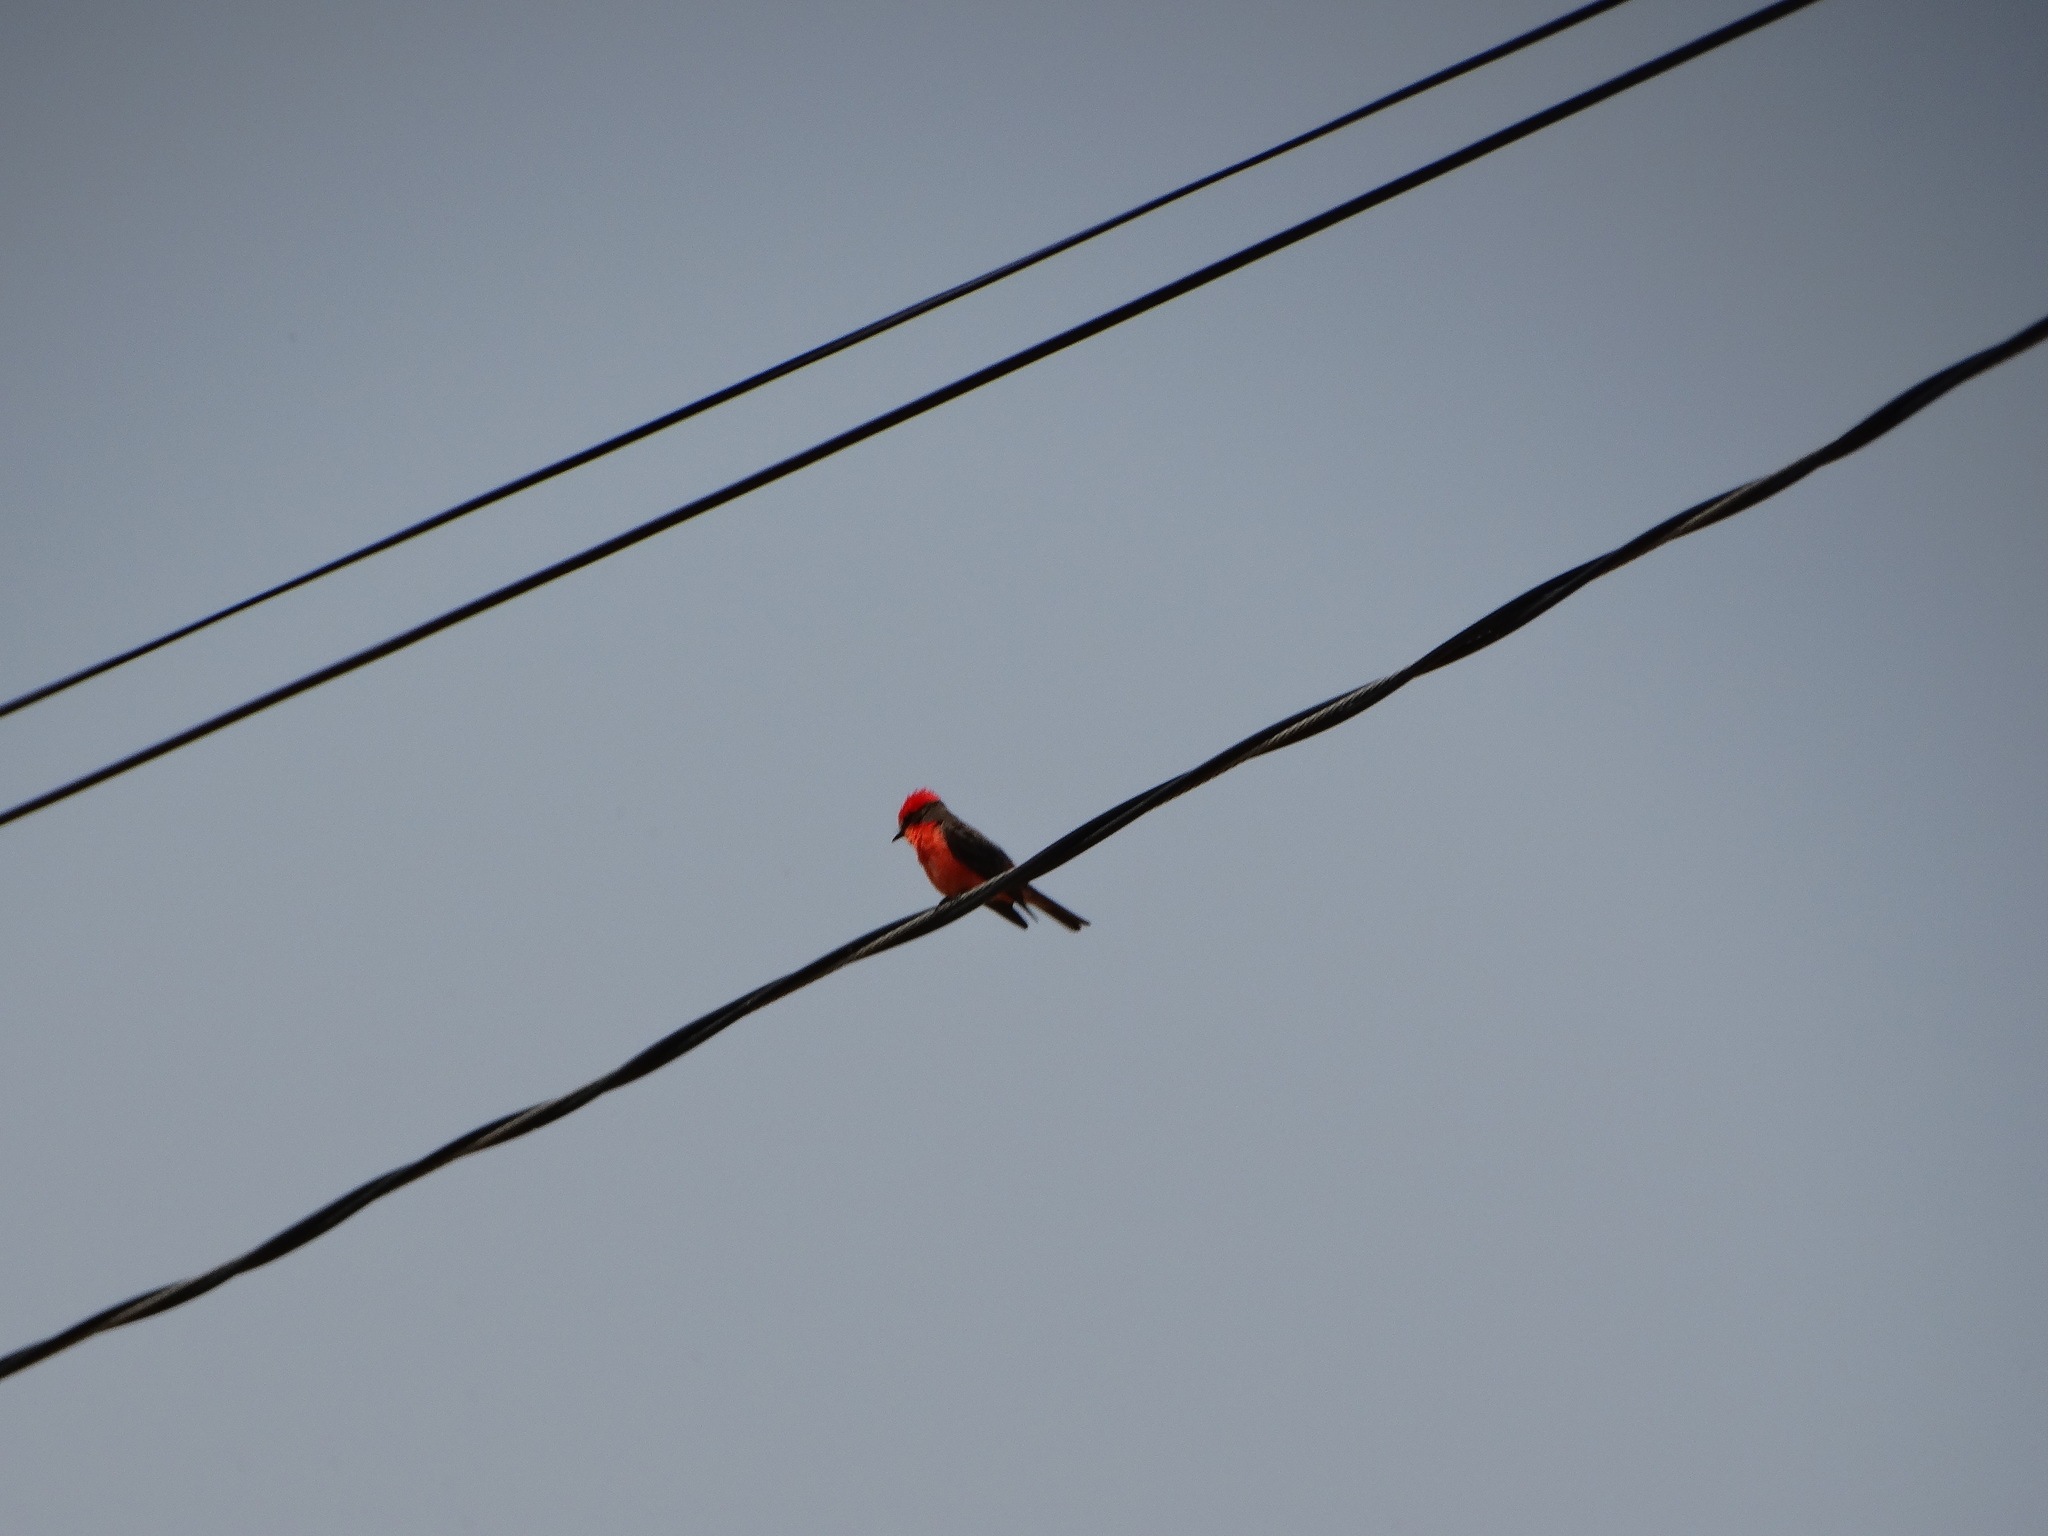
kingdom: Animalia
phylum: Chordata
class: Aves
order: Passeriformes
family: Tyrannidae
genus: Pyrocephalus
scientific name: Pyrocephalus rubinus
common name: Vermilion flycatcher
